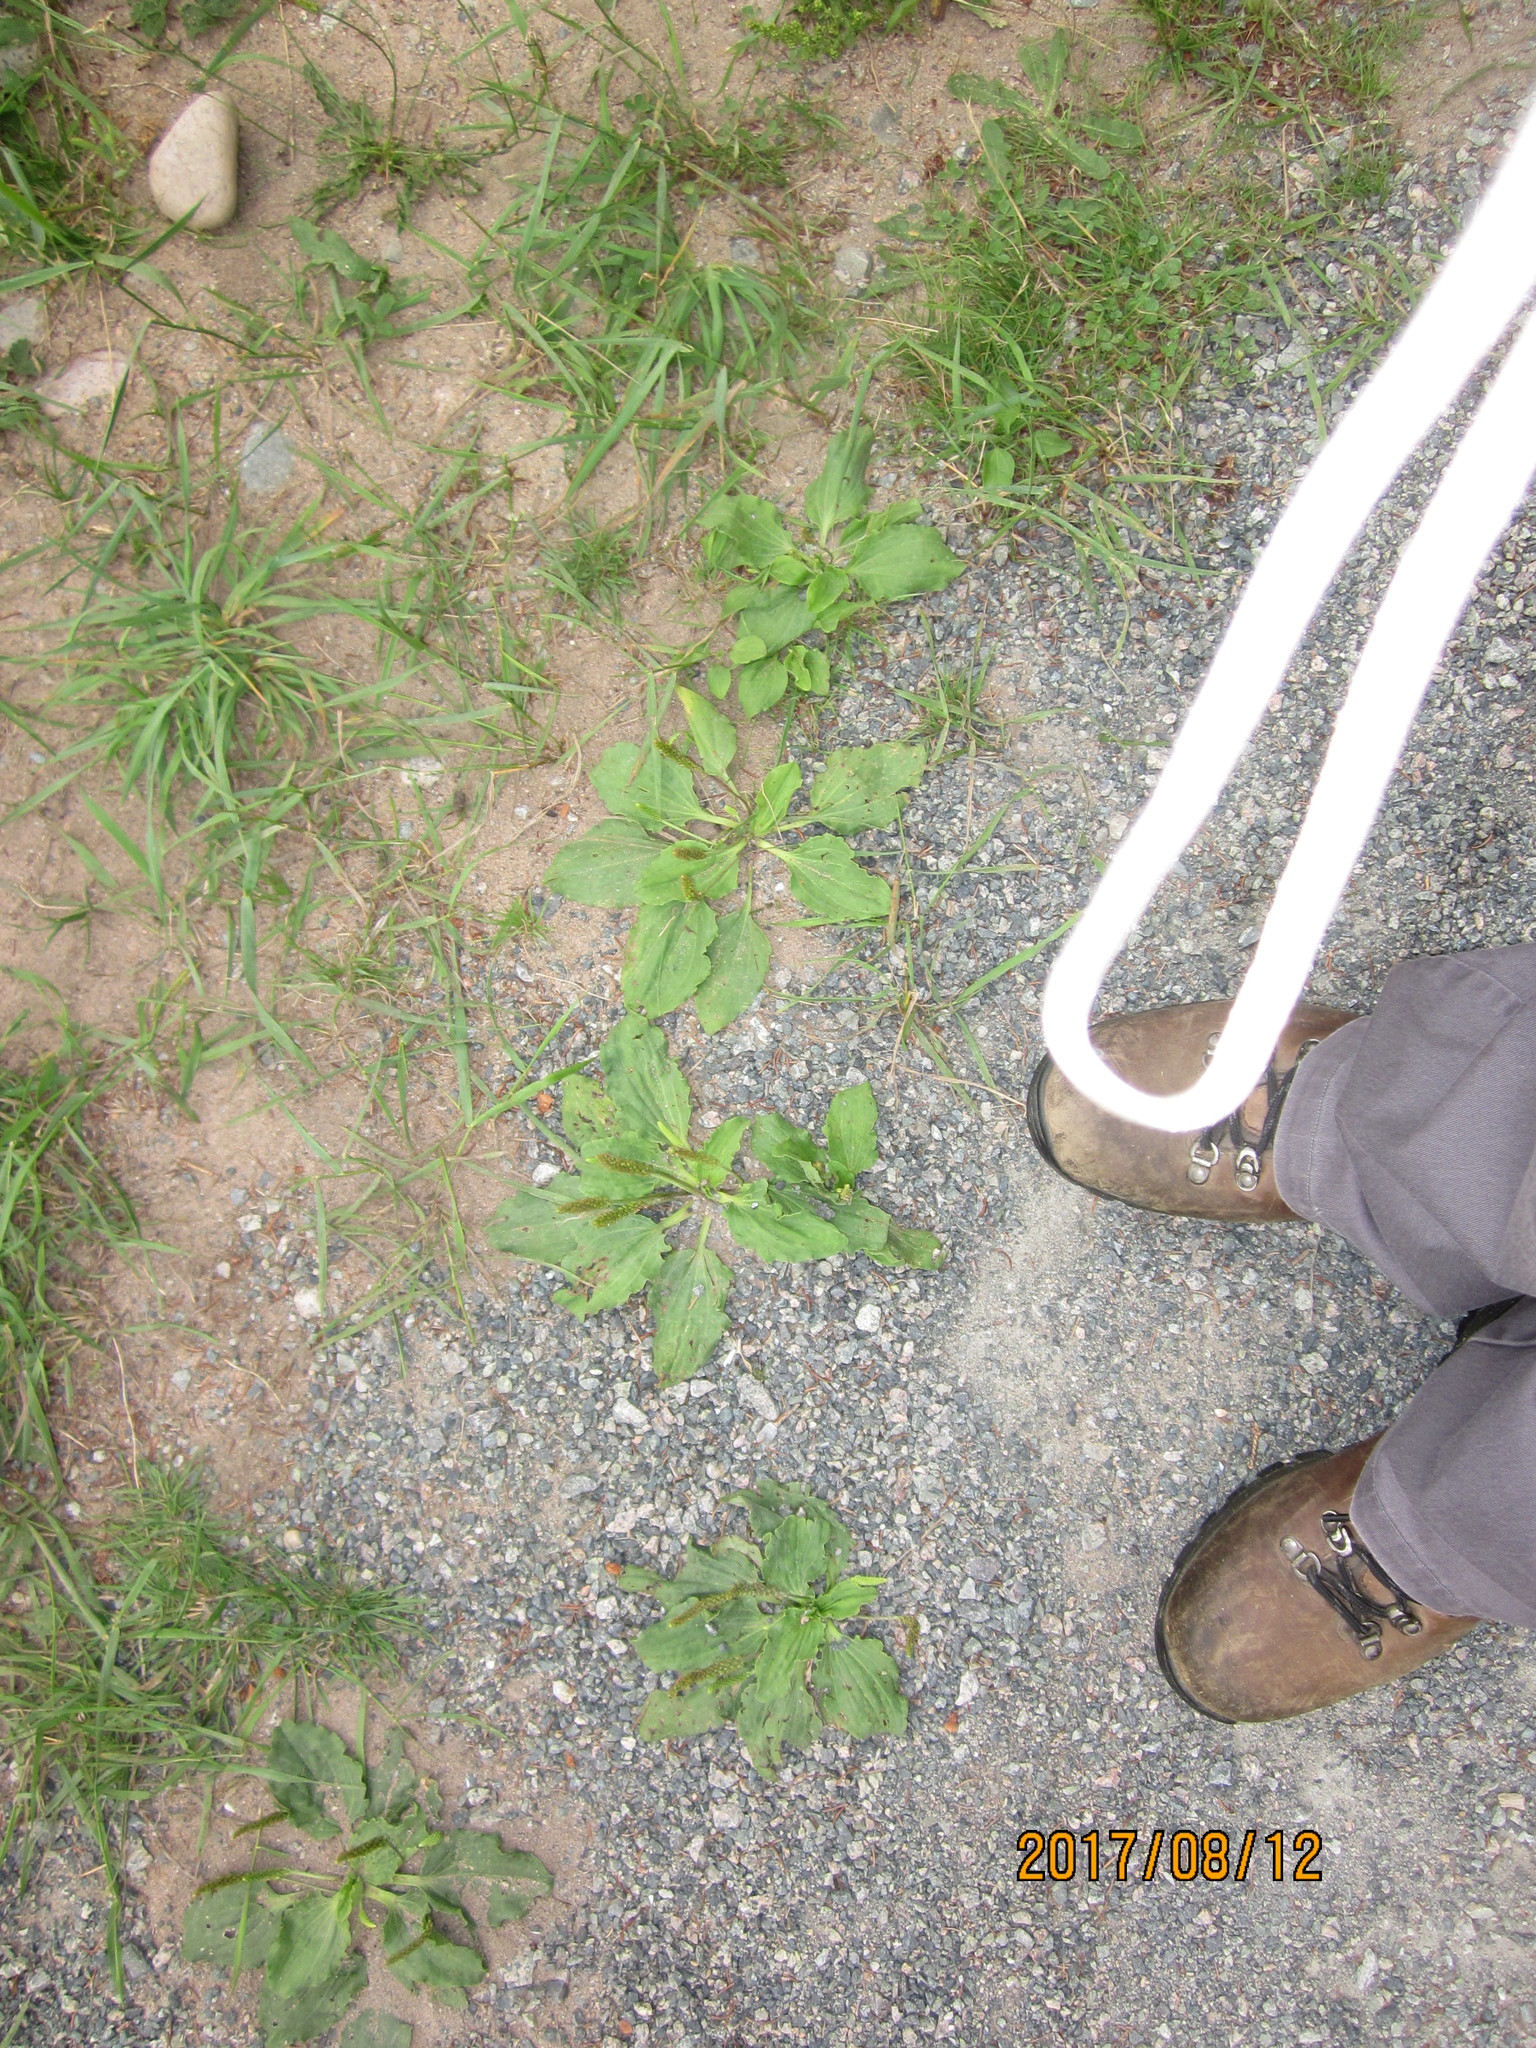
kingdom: Plantae
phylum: Tracheophyta
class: Magnoliopsida
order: Lamiales
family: Plantaginaceae
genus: Plantago
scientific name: Plantago major
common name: Common plantain
